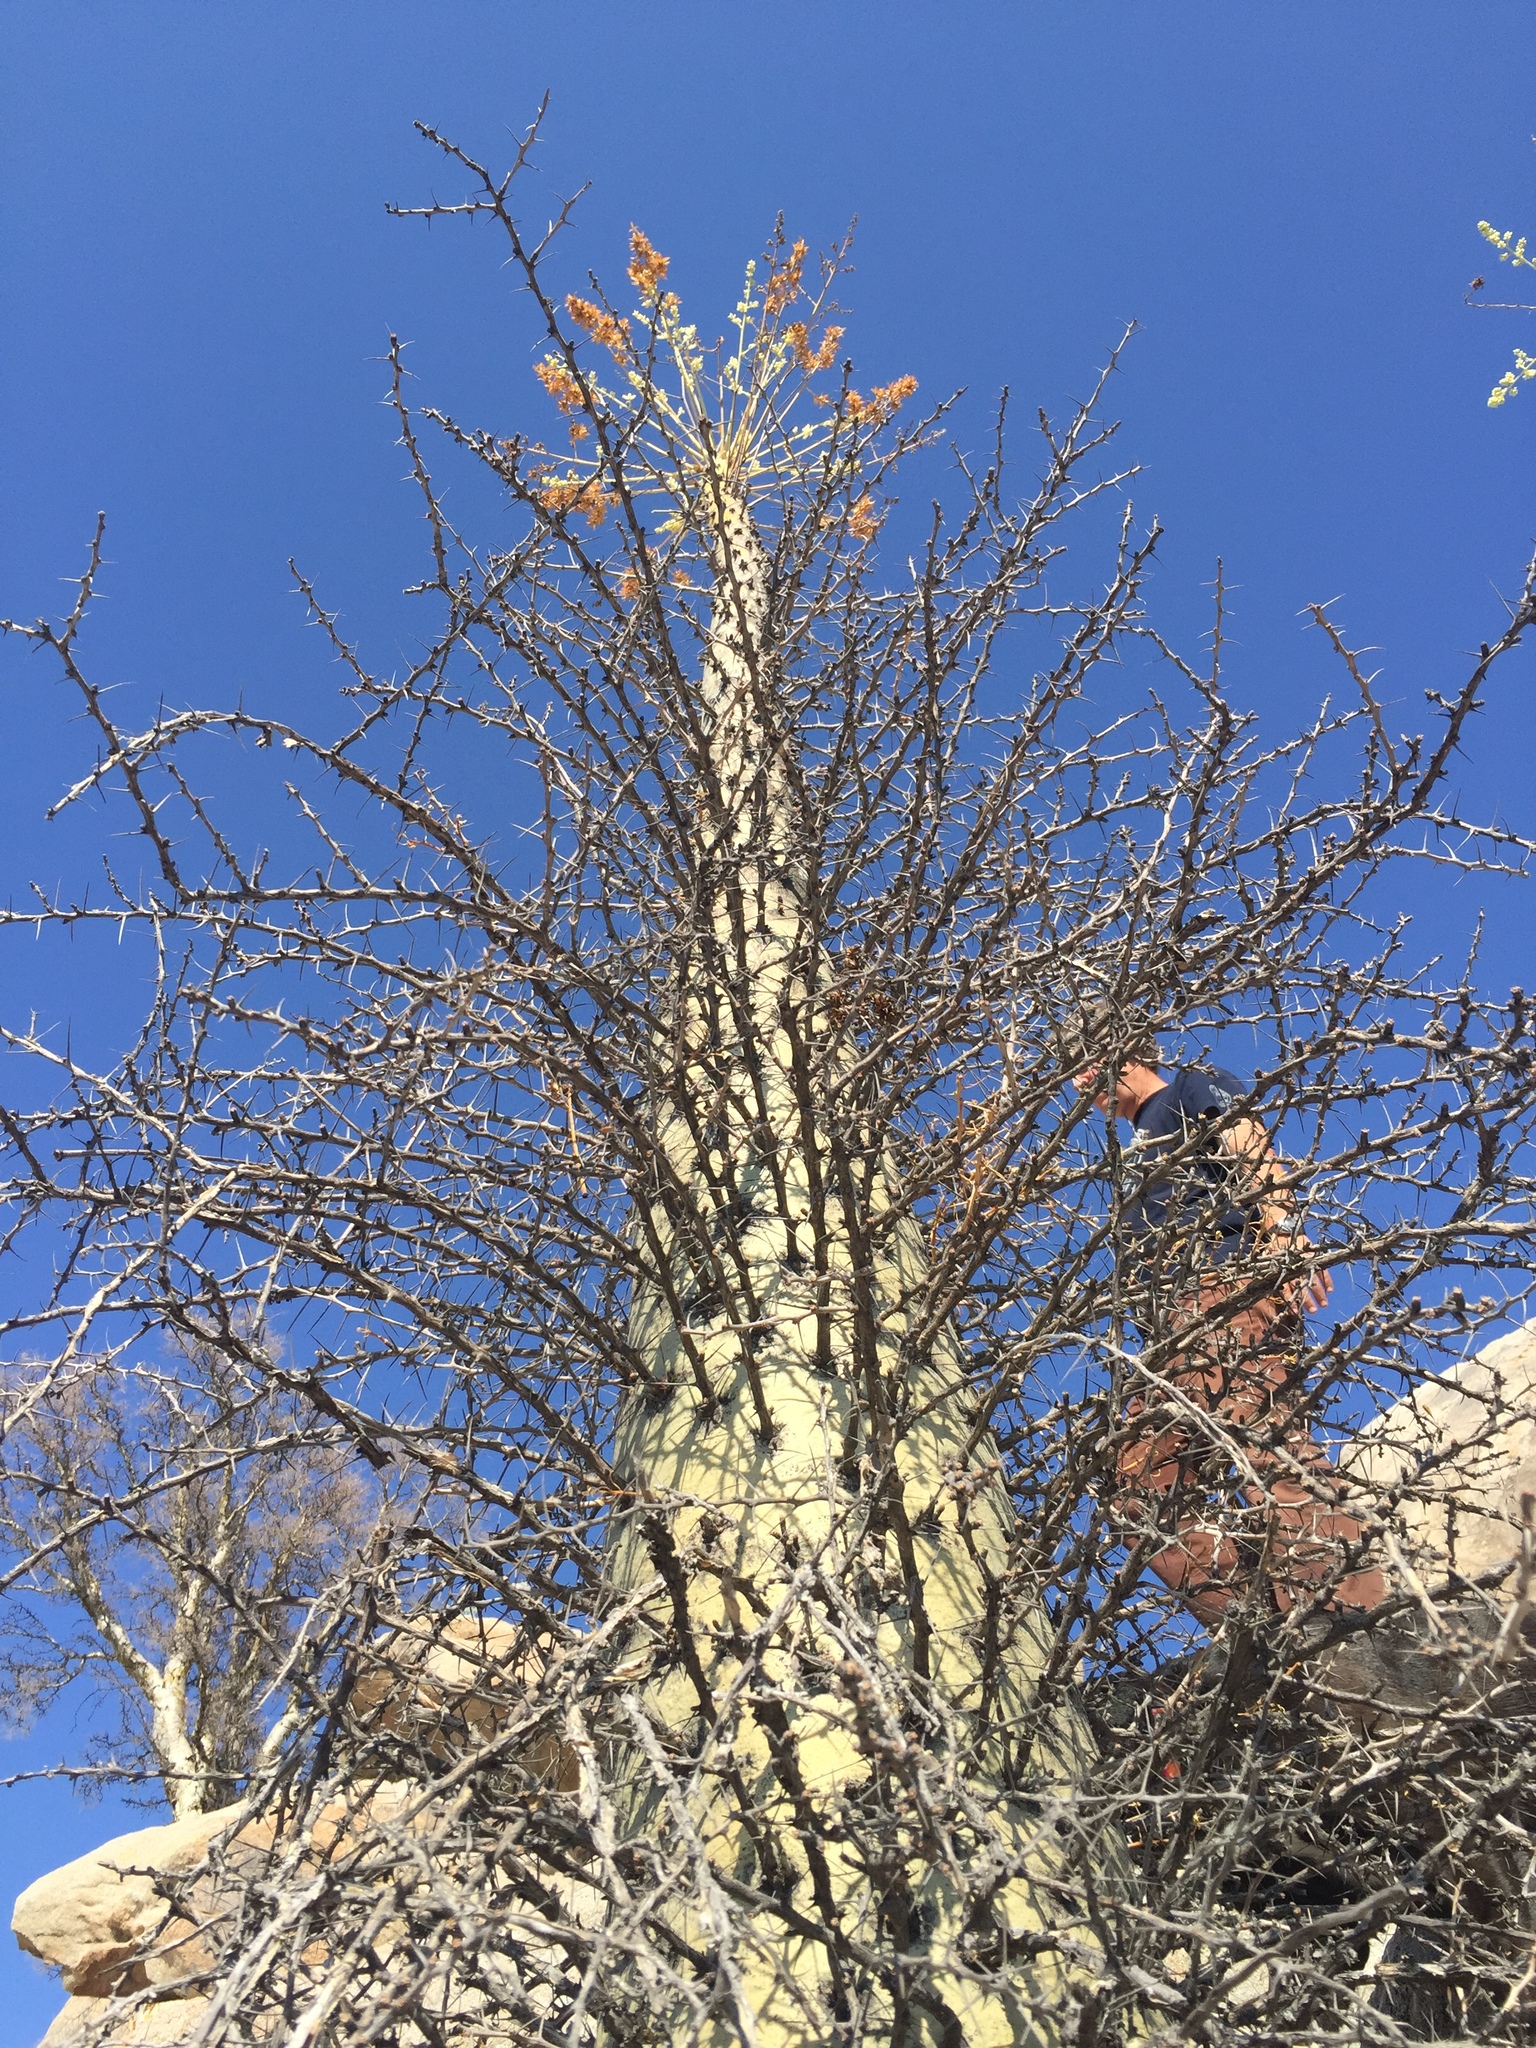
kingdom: Plantae
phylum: Tracheophyta
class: Magnoliopsida
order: Ericales
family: Fouquieriaceae
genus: Fouquieria
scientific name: Fouquieria columnaris
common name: Boojumtree
